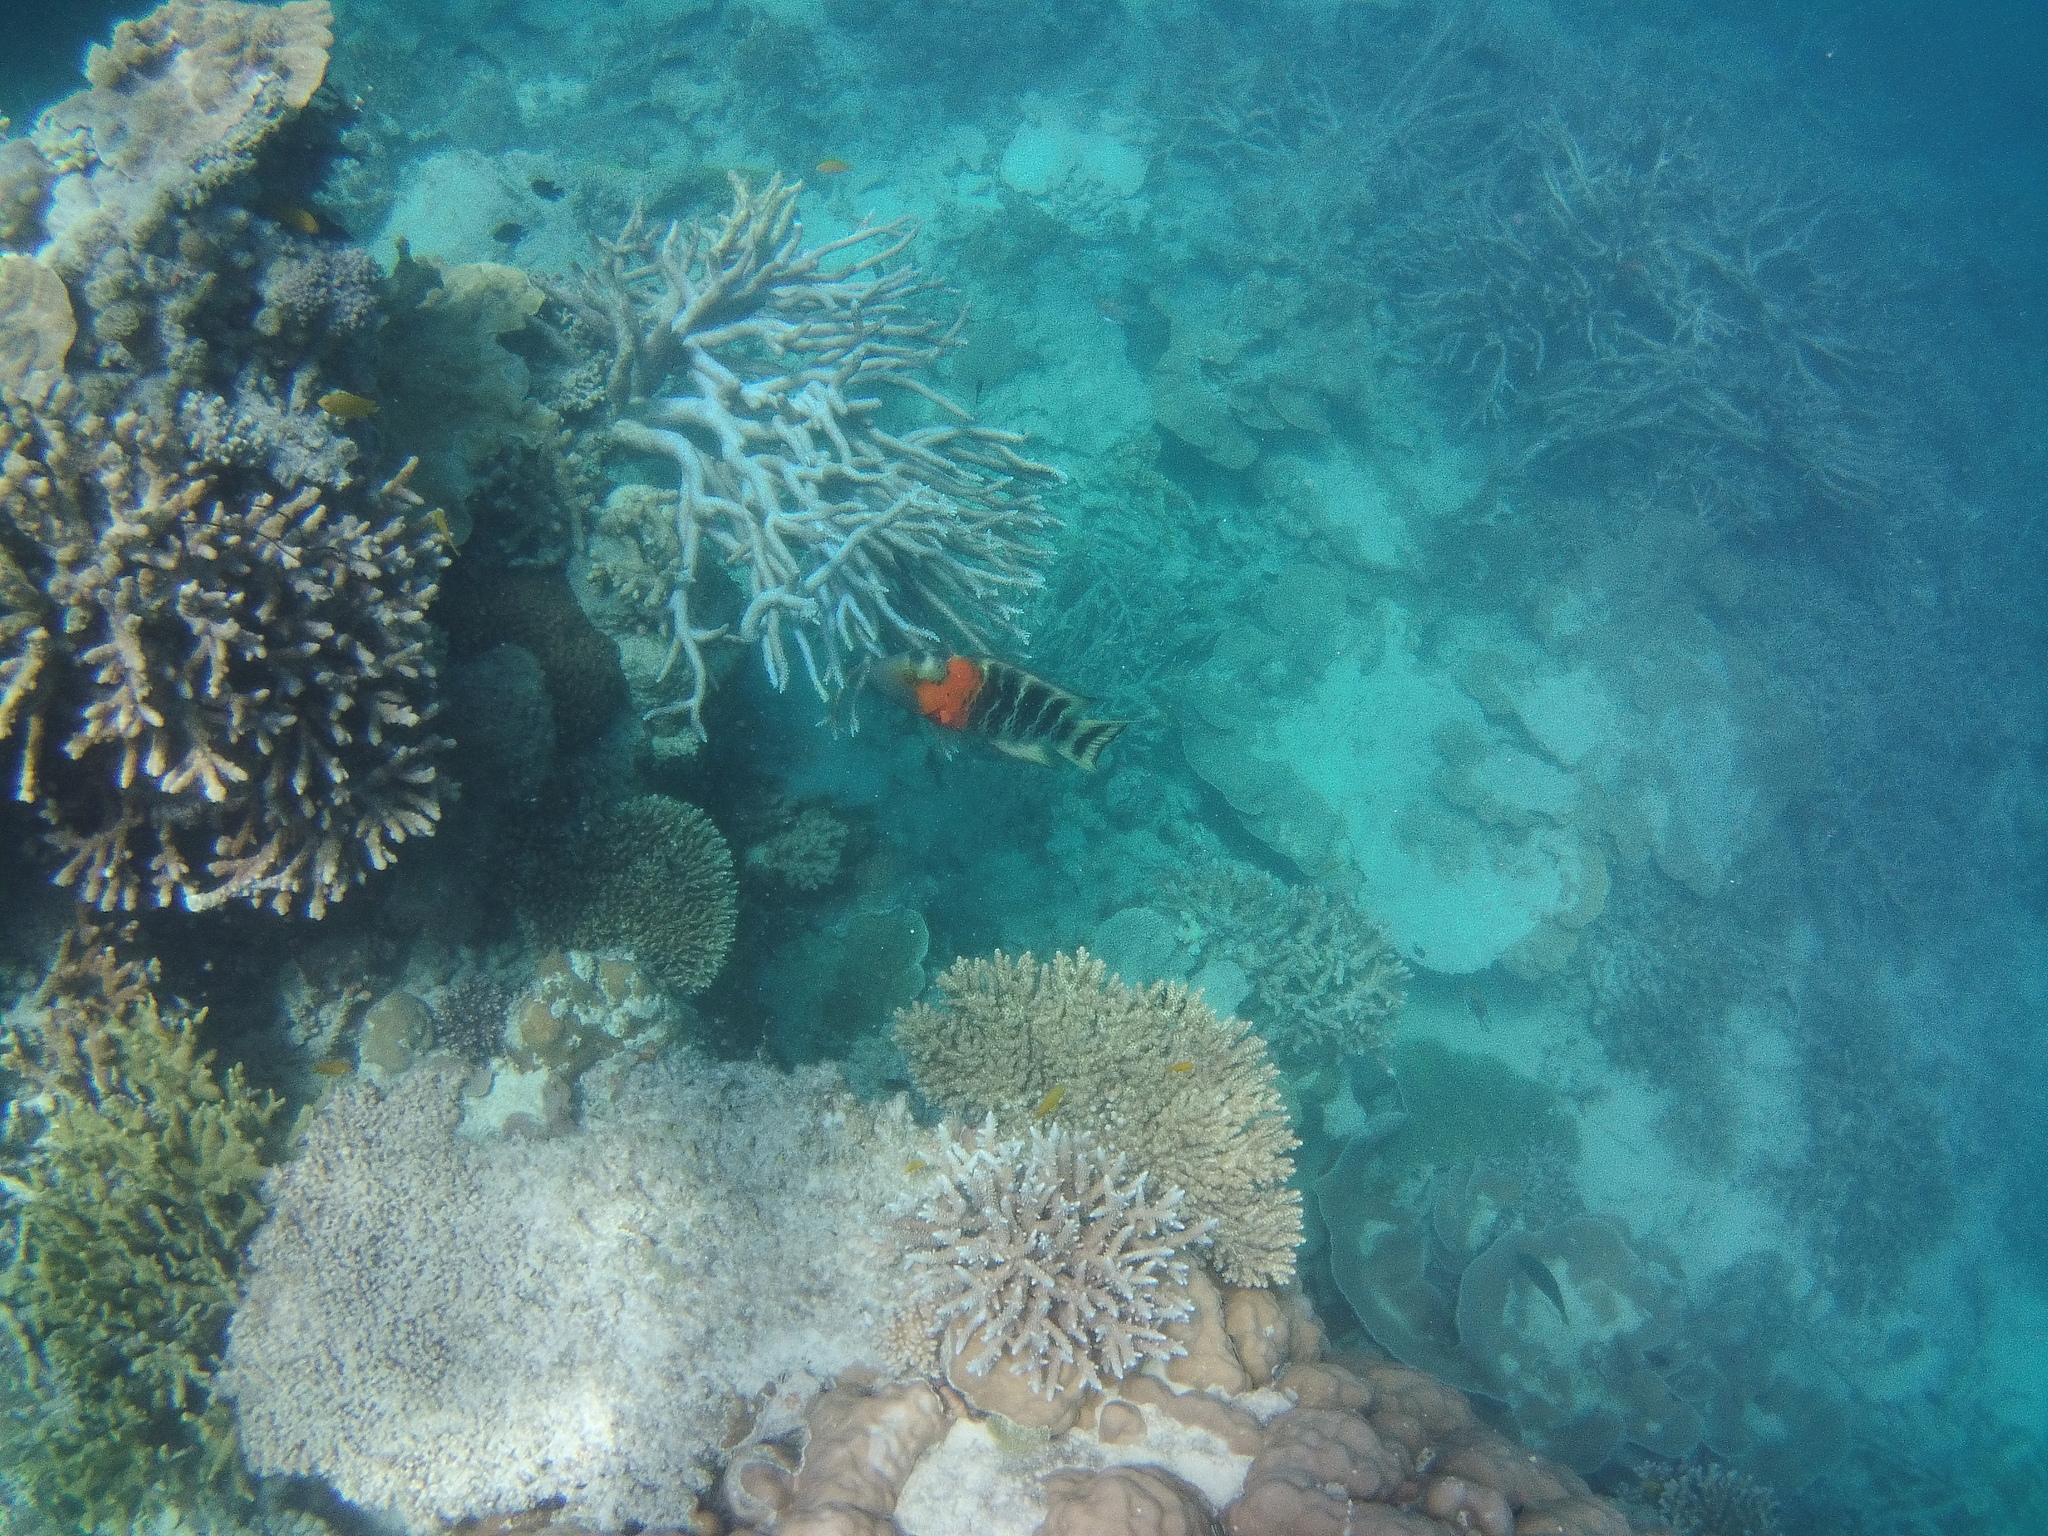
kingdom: Animalia
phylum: Chordata
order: Perciformes
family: Labridae
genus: Cheilinus
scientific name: Cheilinus fasciatus
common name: Red-breasted wrasse
